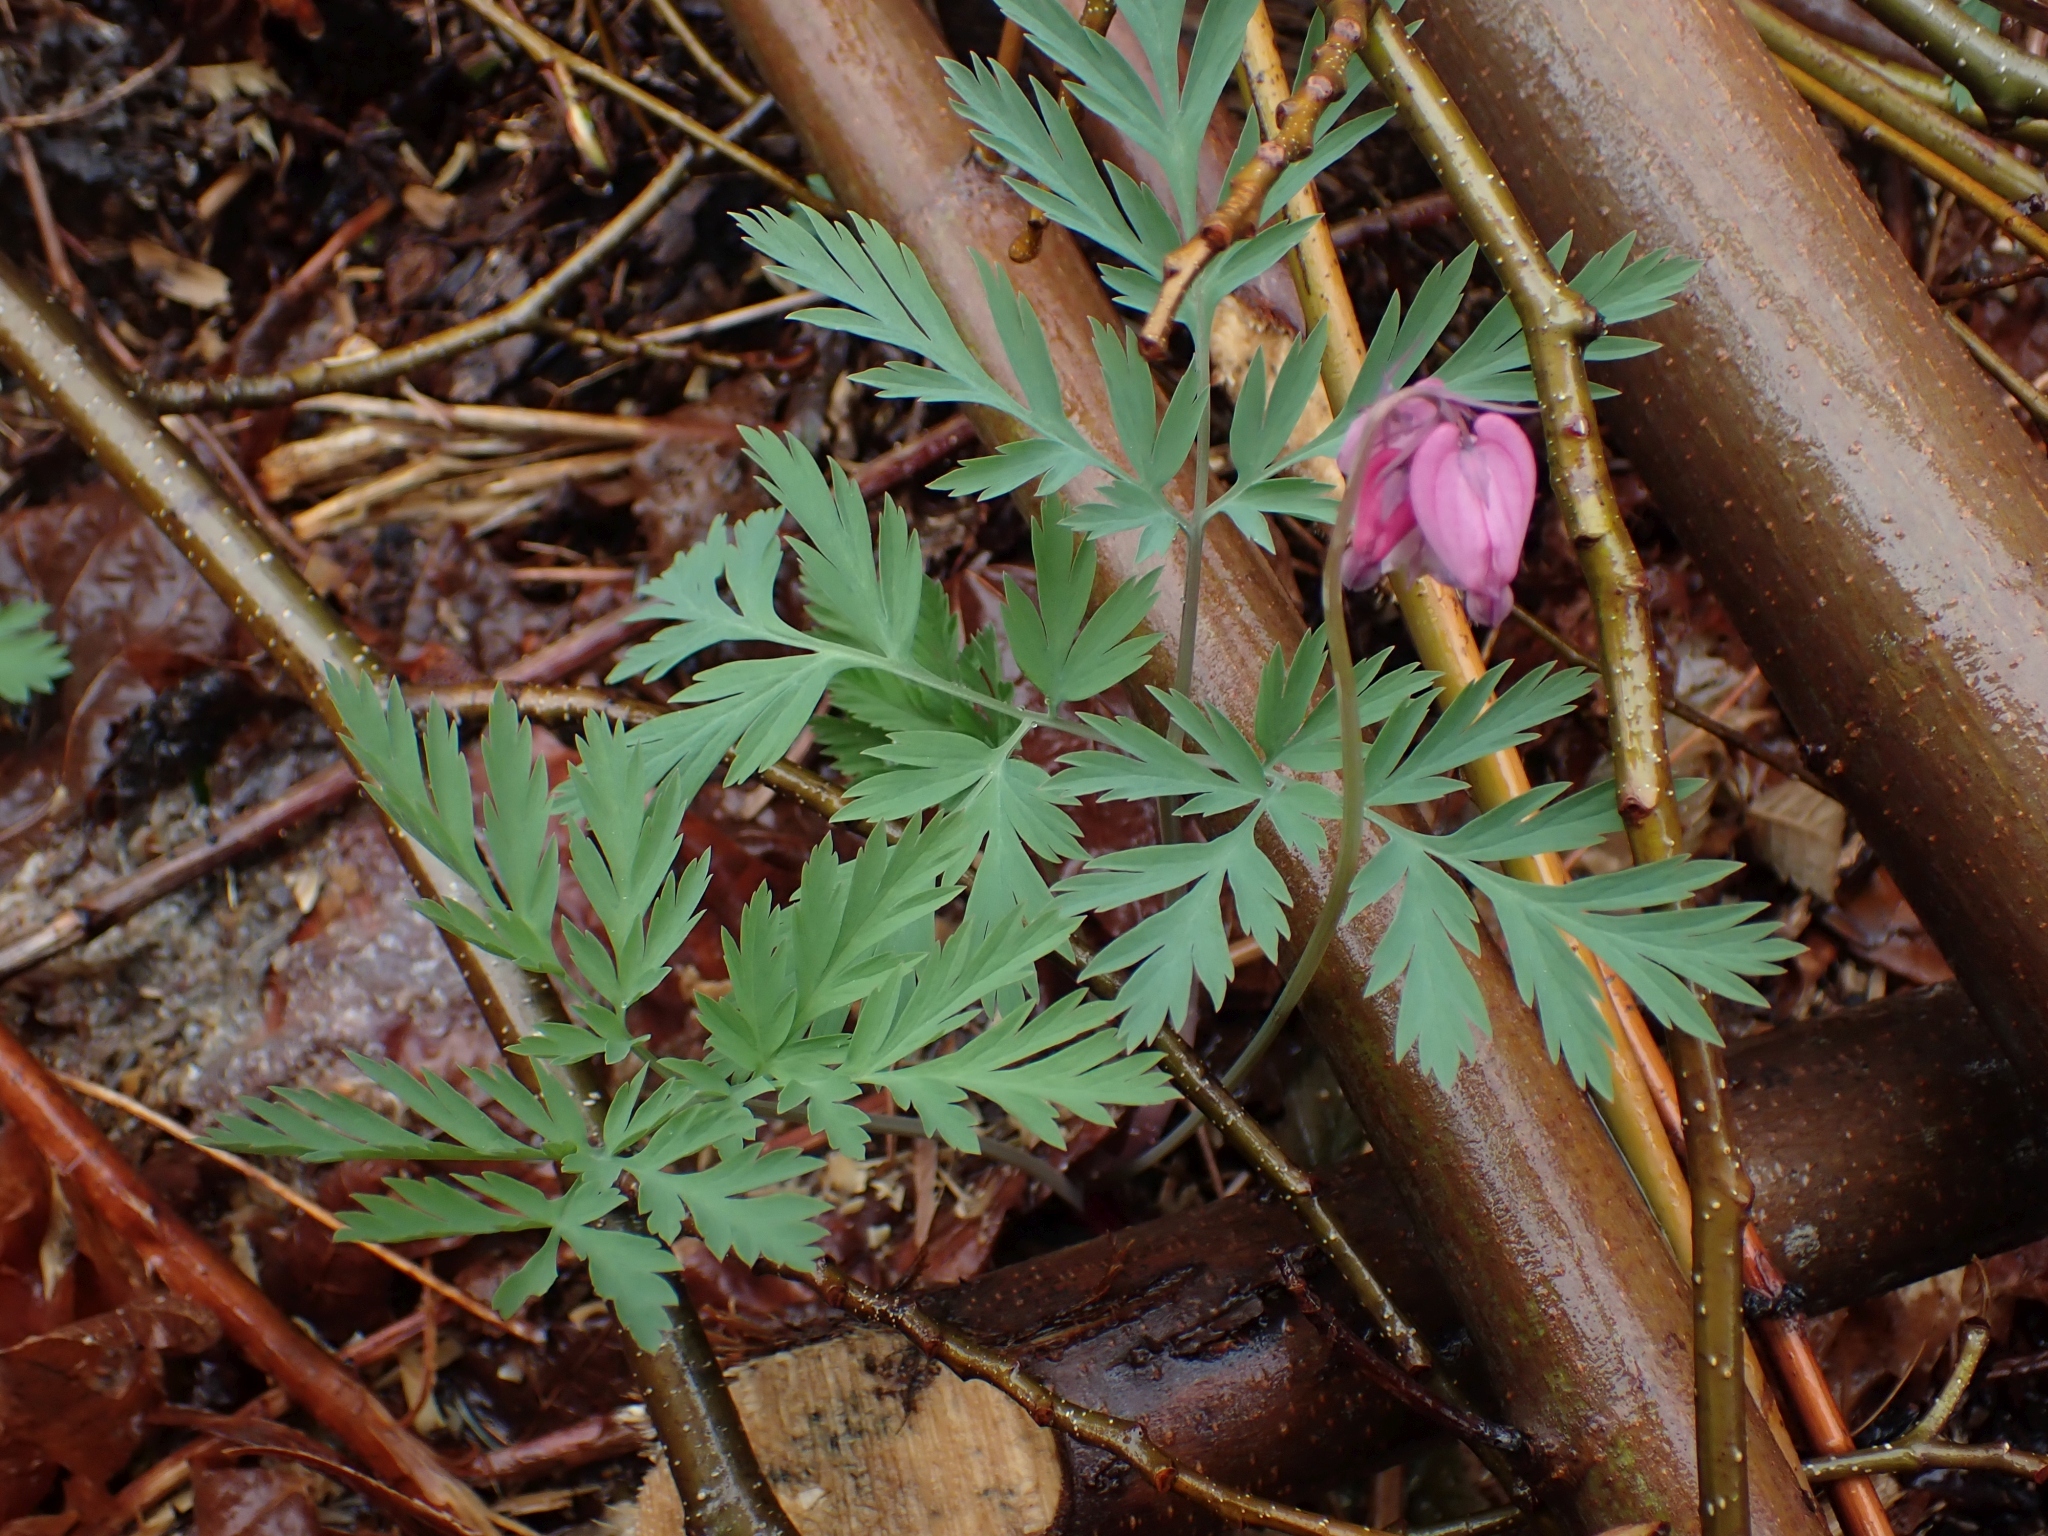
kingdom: Plantae
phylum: Tracheophyta
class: Magnoliopsida
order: Ranunculales
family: Papaveraceae
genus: Dicentra
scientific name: Dicentra formosa
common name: Bleeding-heart
